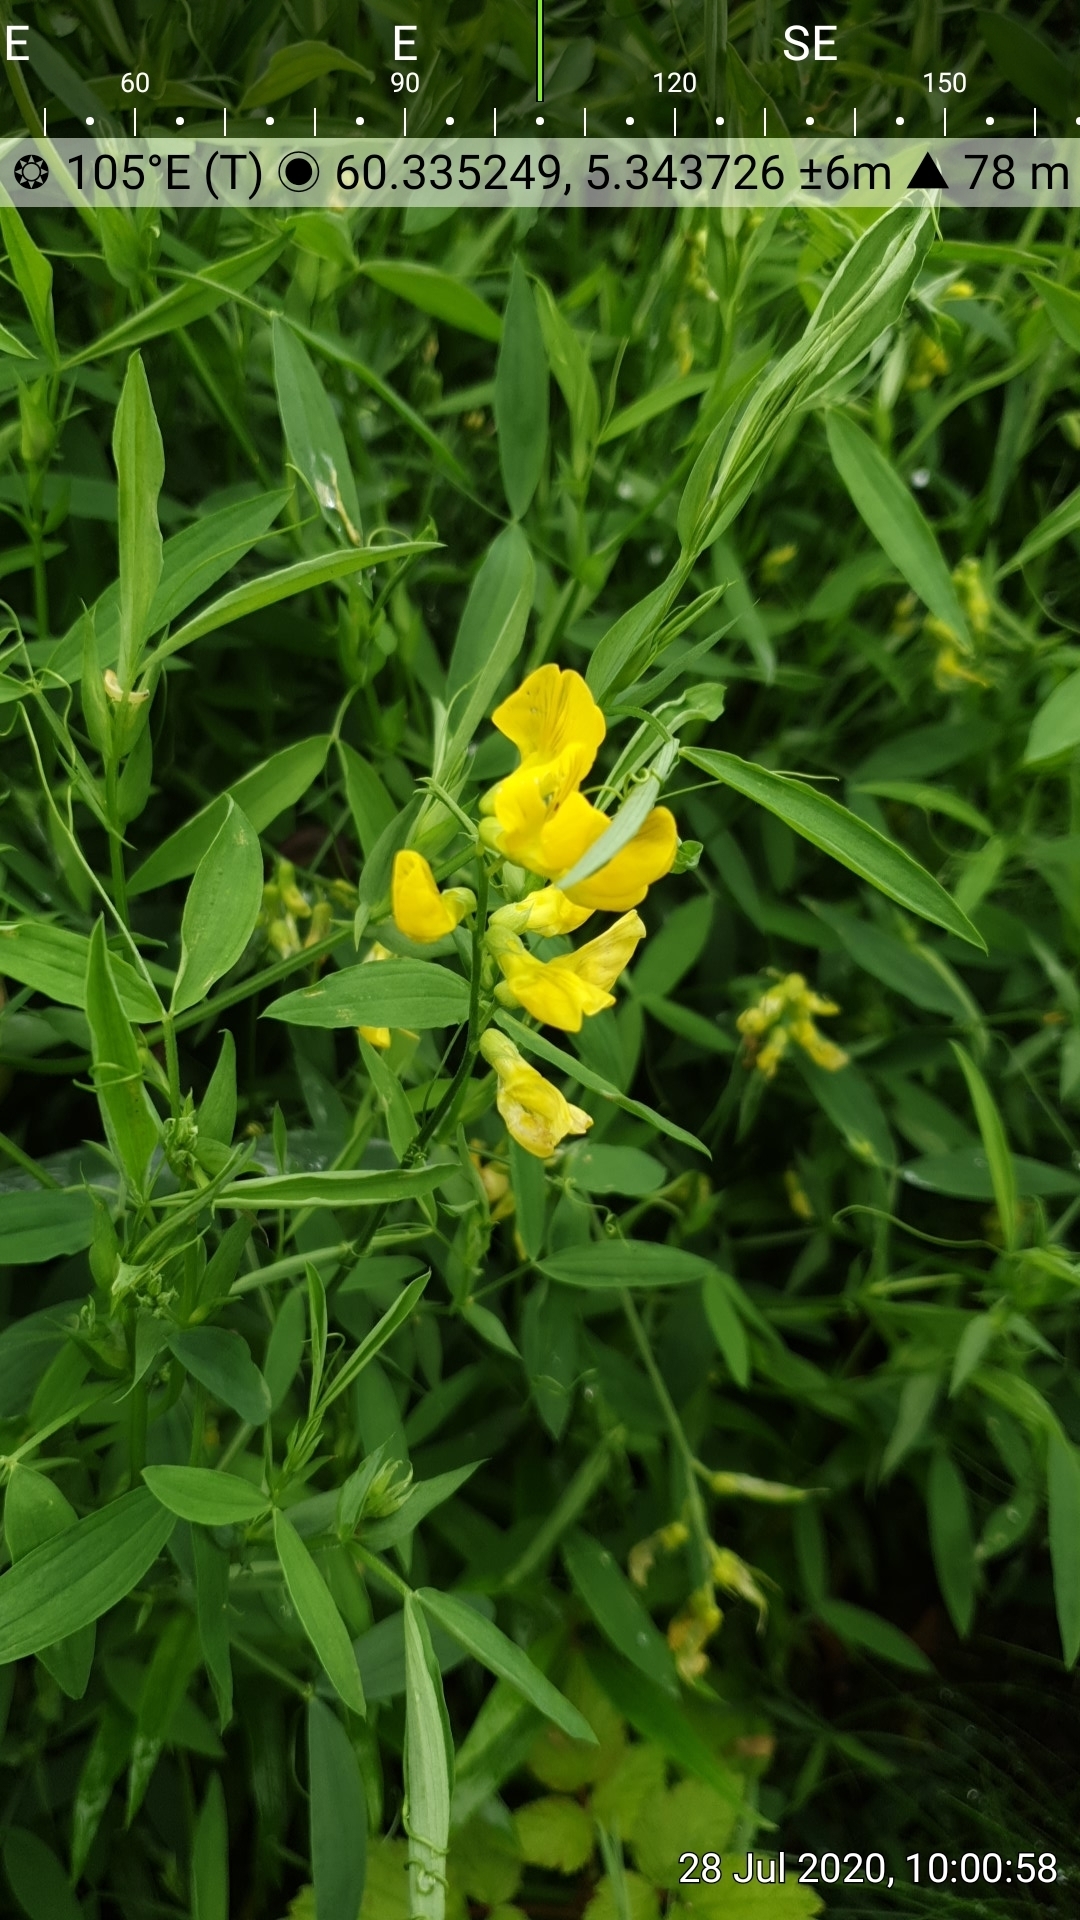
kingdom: Plantae
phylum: Tracheophyta
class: Magnoliopsida
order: Fabales
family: Fabaceae
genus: Lathyrus
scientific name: Lathyrus pratensis
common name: Meadow vetchling
